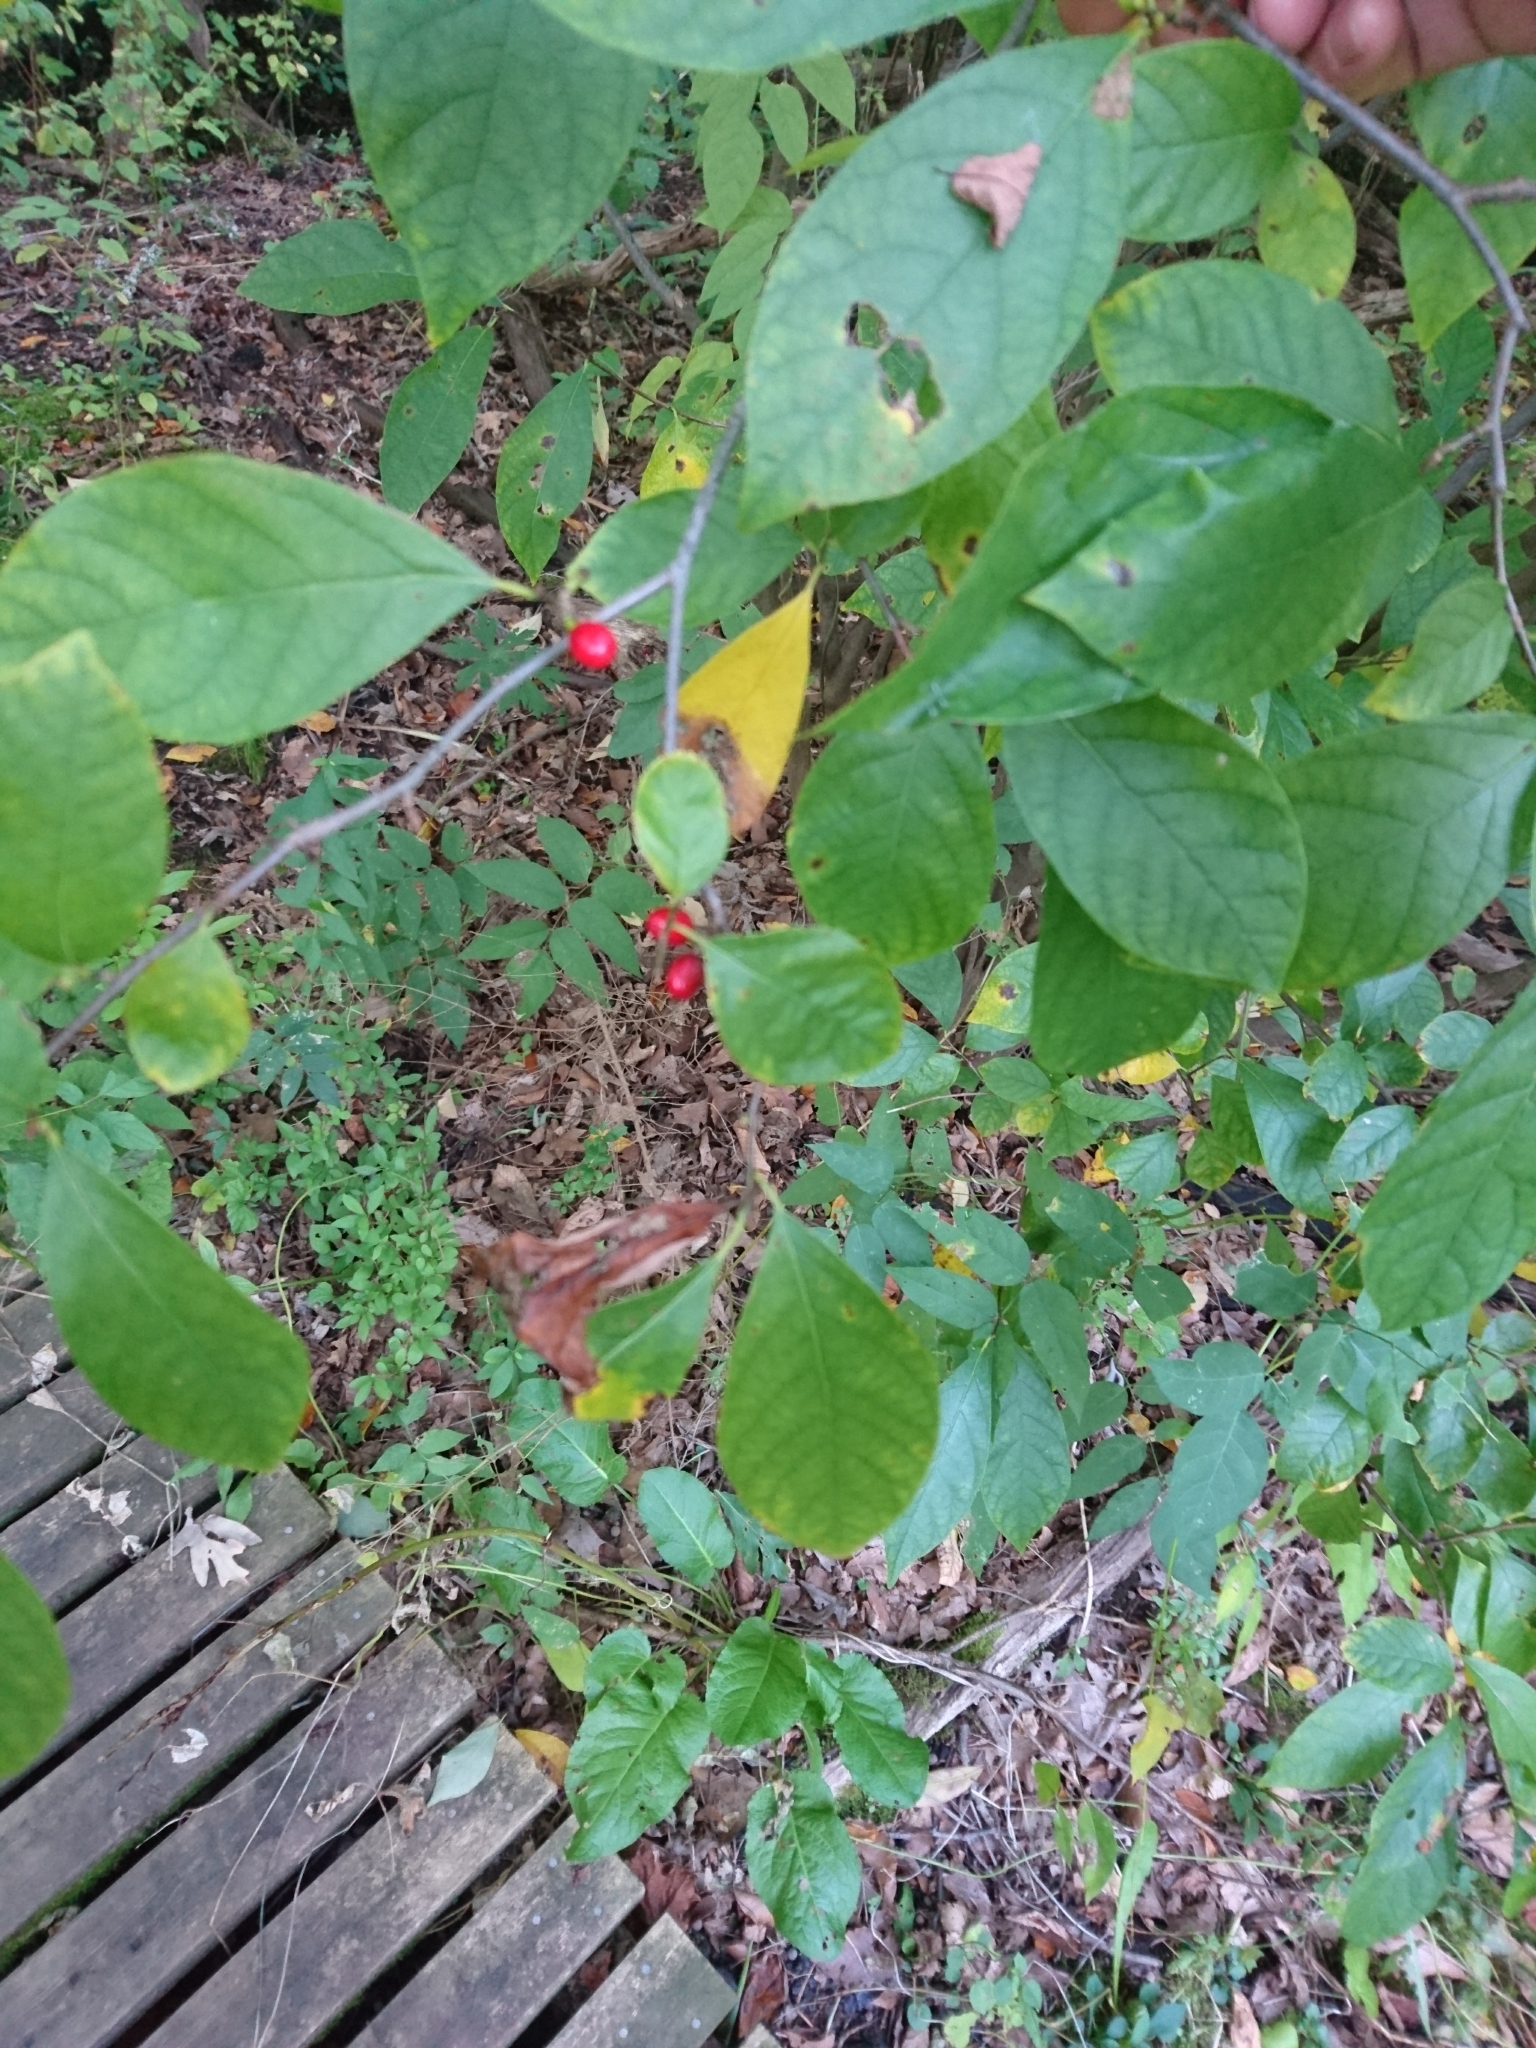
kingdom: Plantae
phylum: Tracheophyta
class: Magnoliopsida
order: Laurales
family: Lauraceae
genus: Lindera
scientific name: Lindera benzoin
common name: Spicebush
